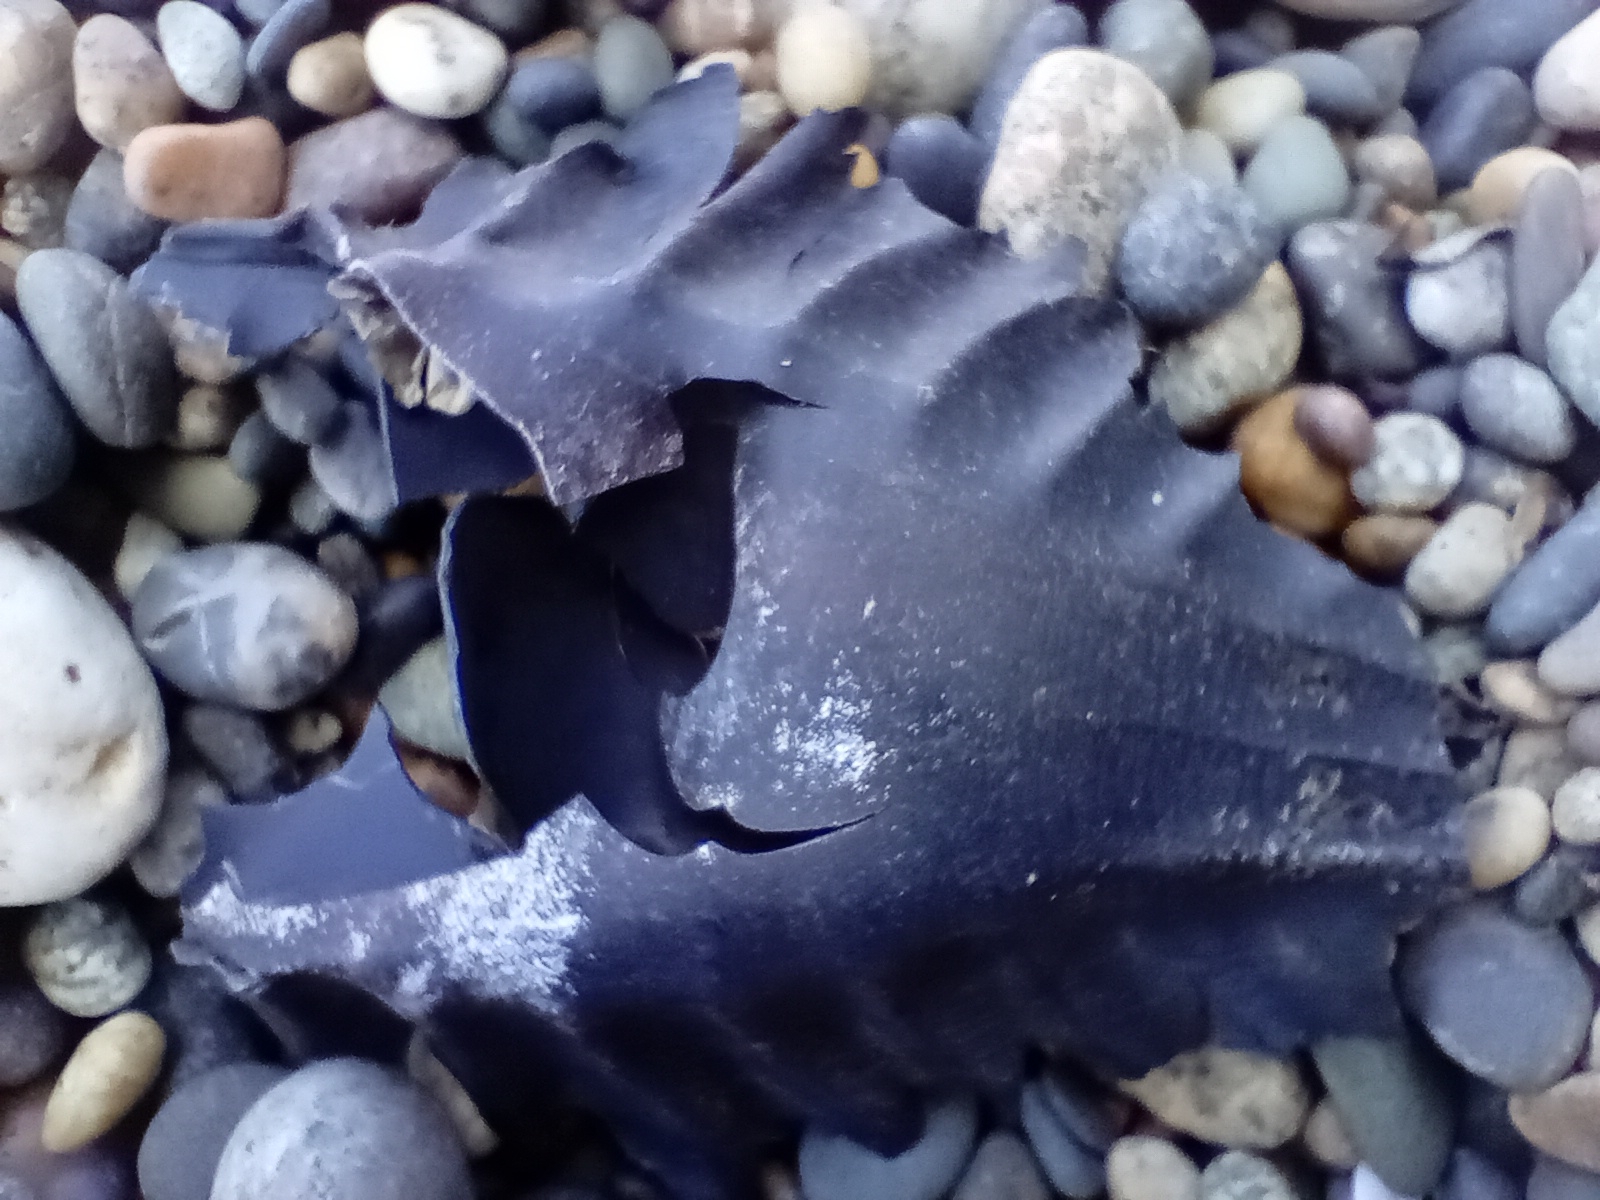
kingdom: Animalia
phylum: Chordata
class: Holocephali
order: Chimaeriformes
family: Callorhinchidae
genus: Callorhinchus
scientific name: Callorhinchus milii
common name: Elephant fish
